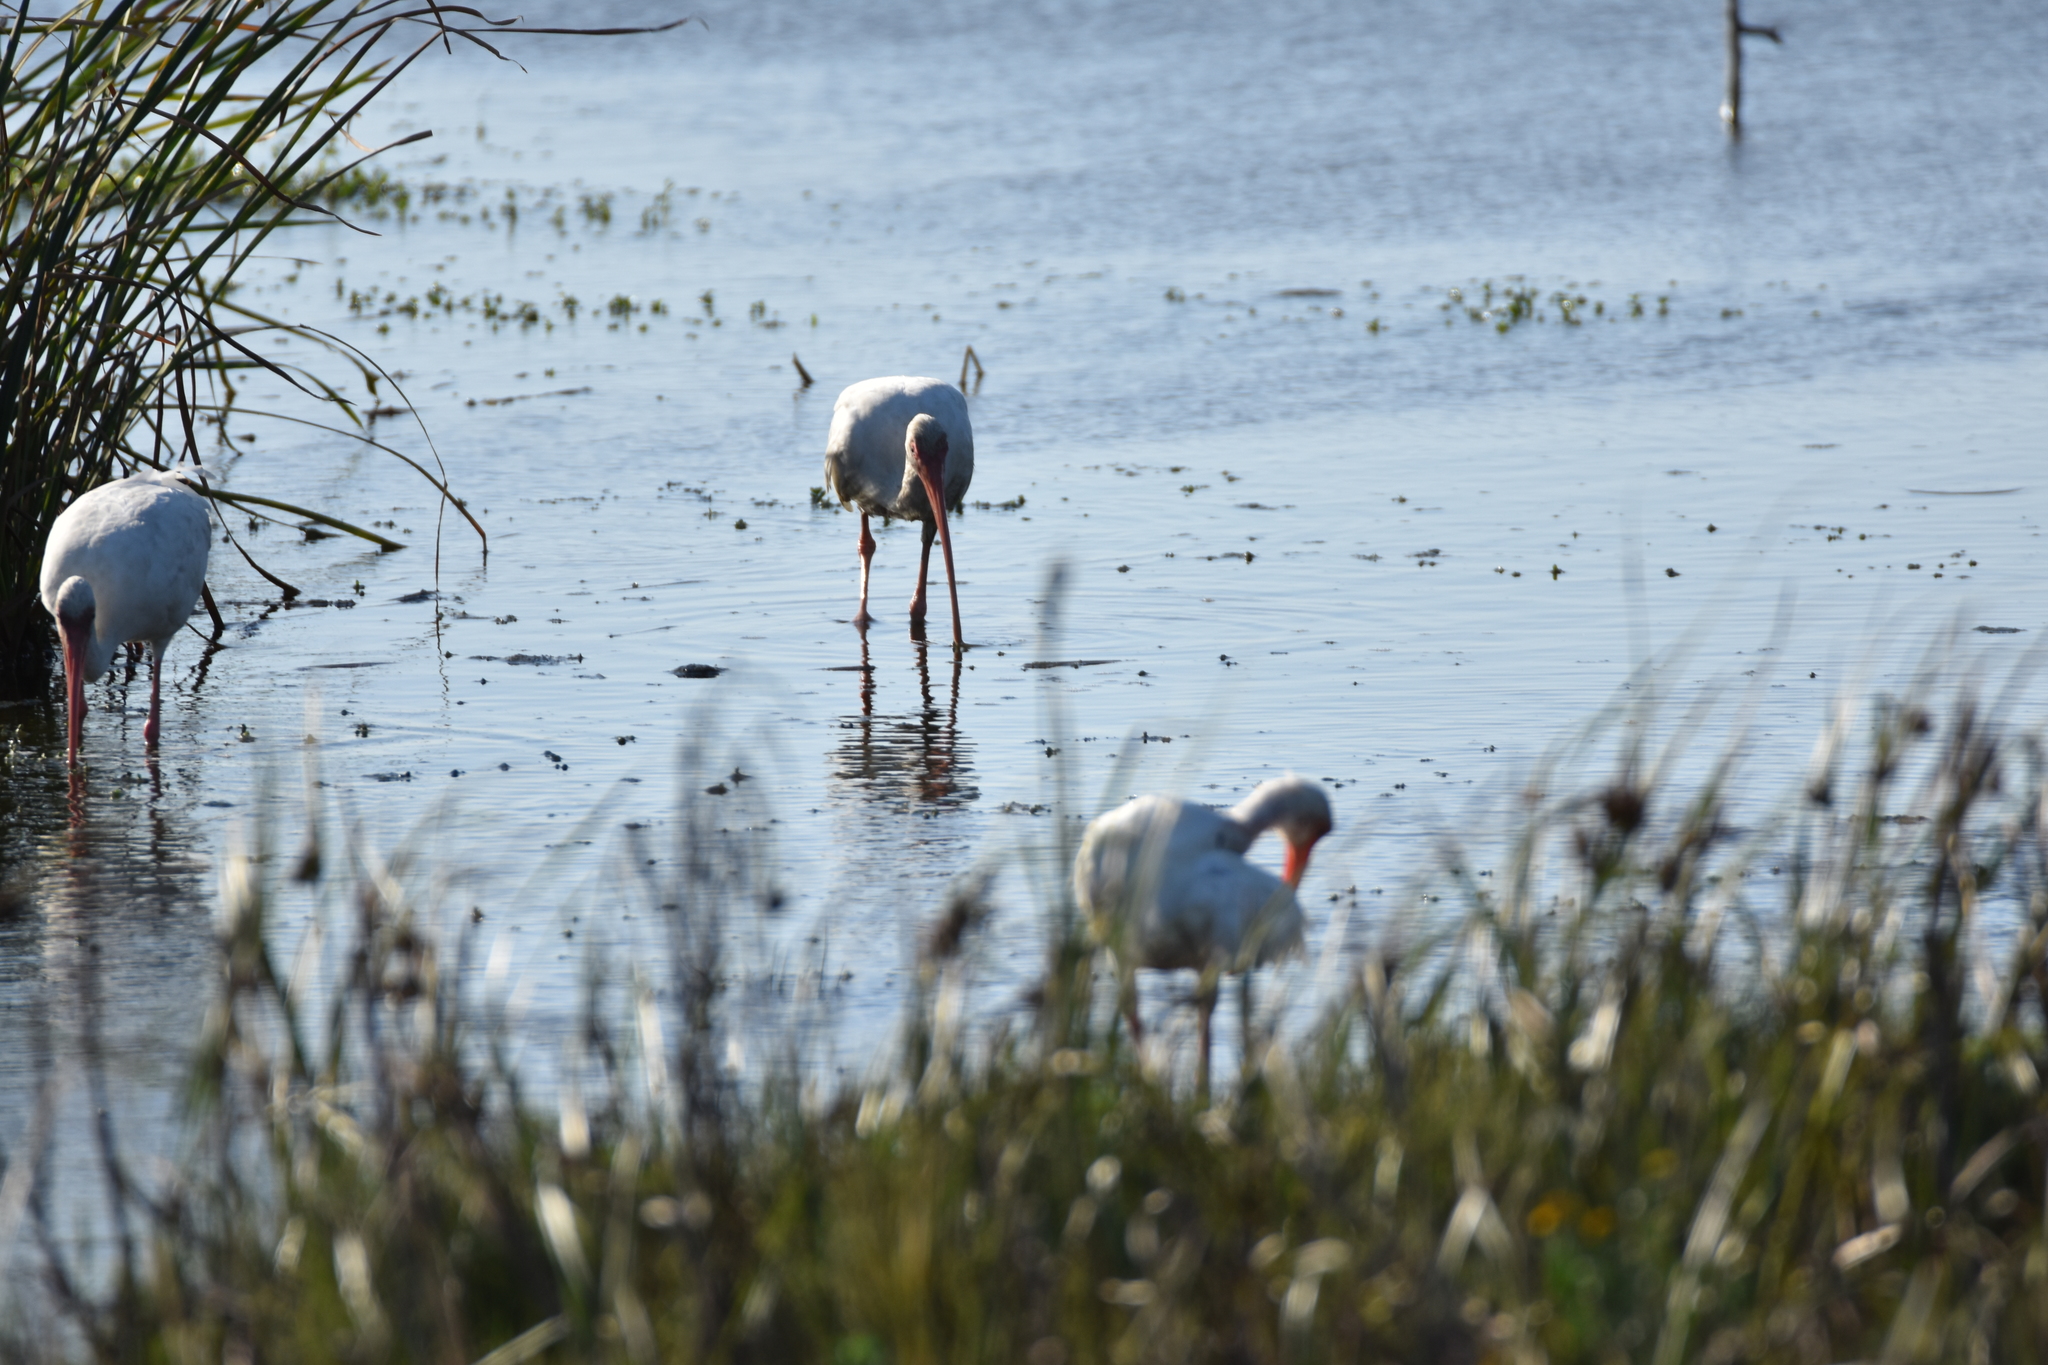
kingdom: Animalia
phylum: Chordata
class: Aves
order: Pelecaniformes
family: Threskiornithidae
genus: Eudocimus
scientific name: Eudocimus albus
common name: White ibis
